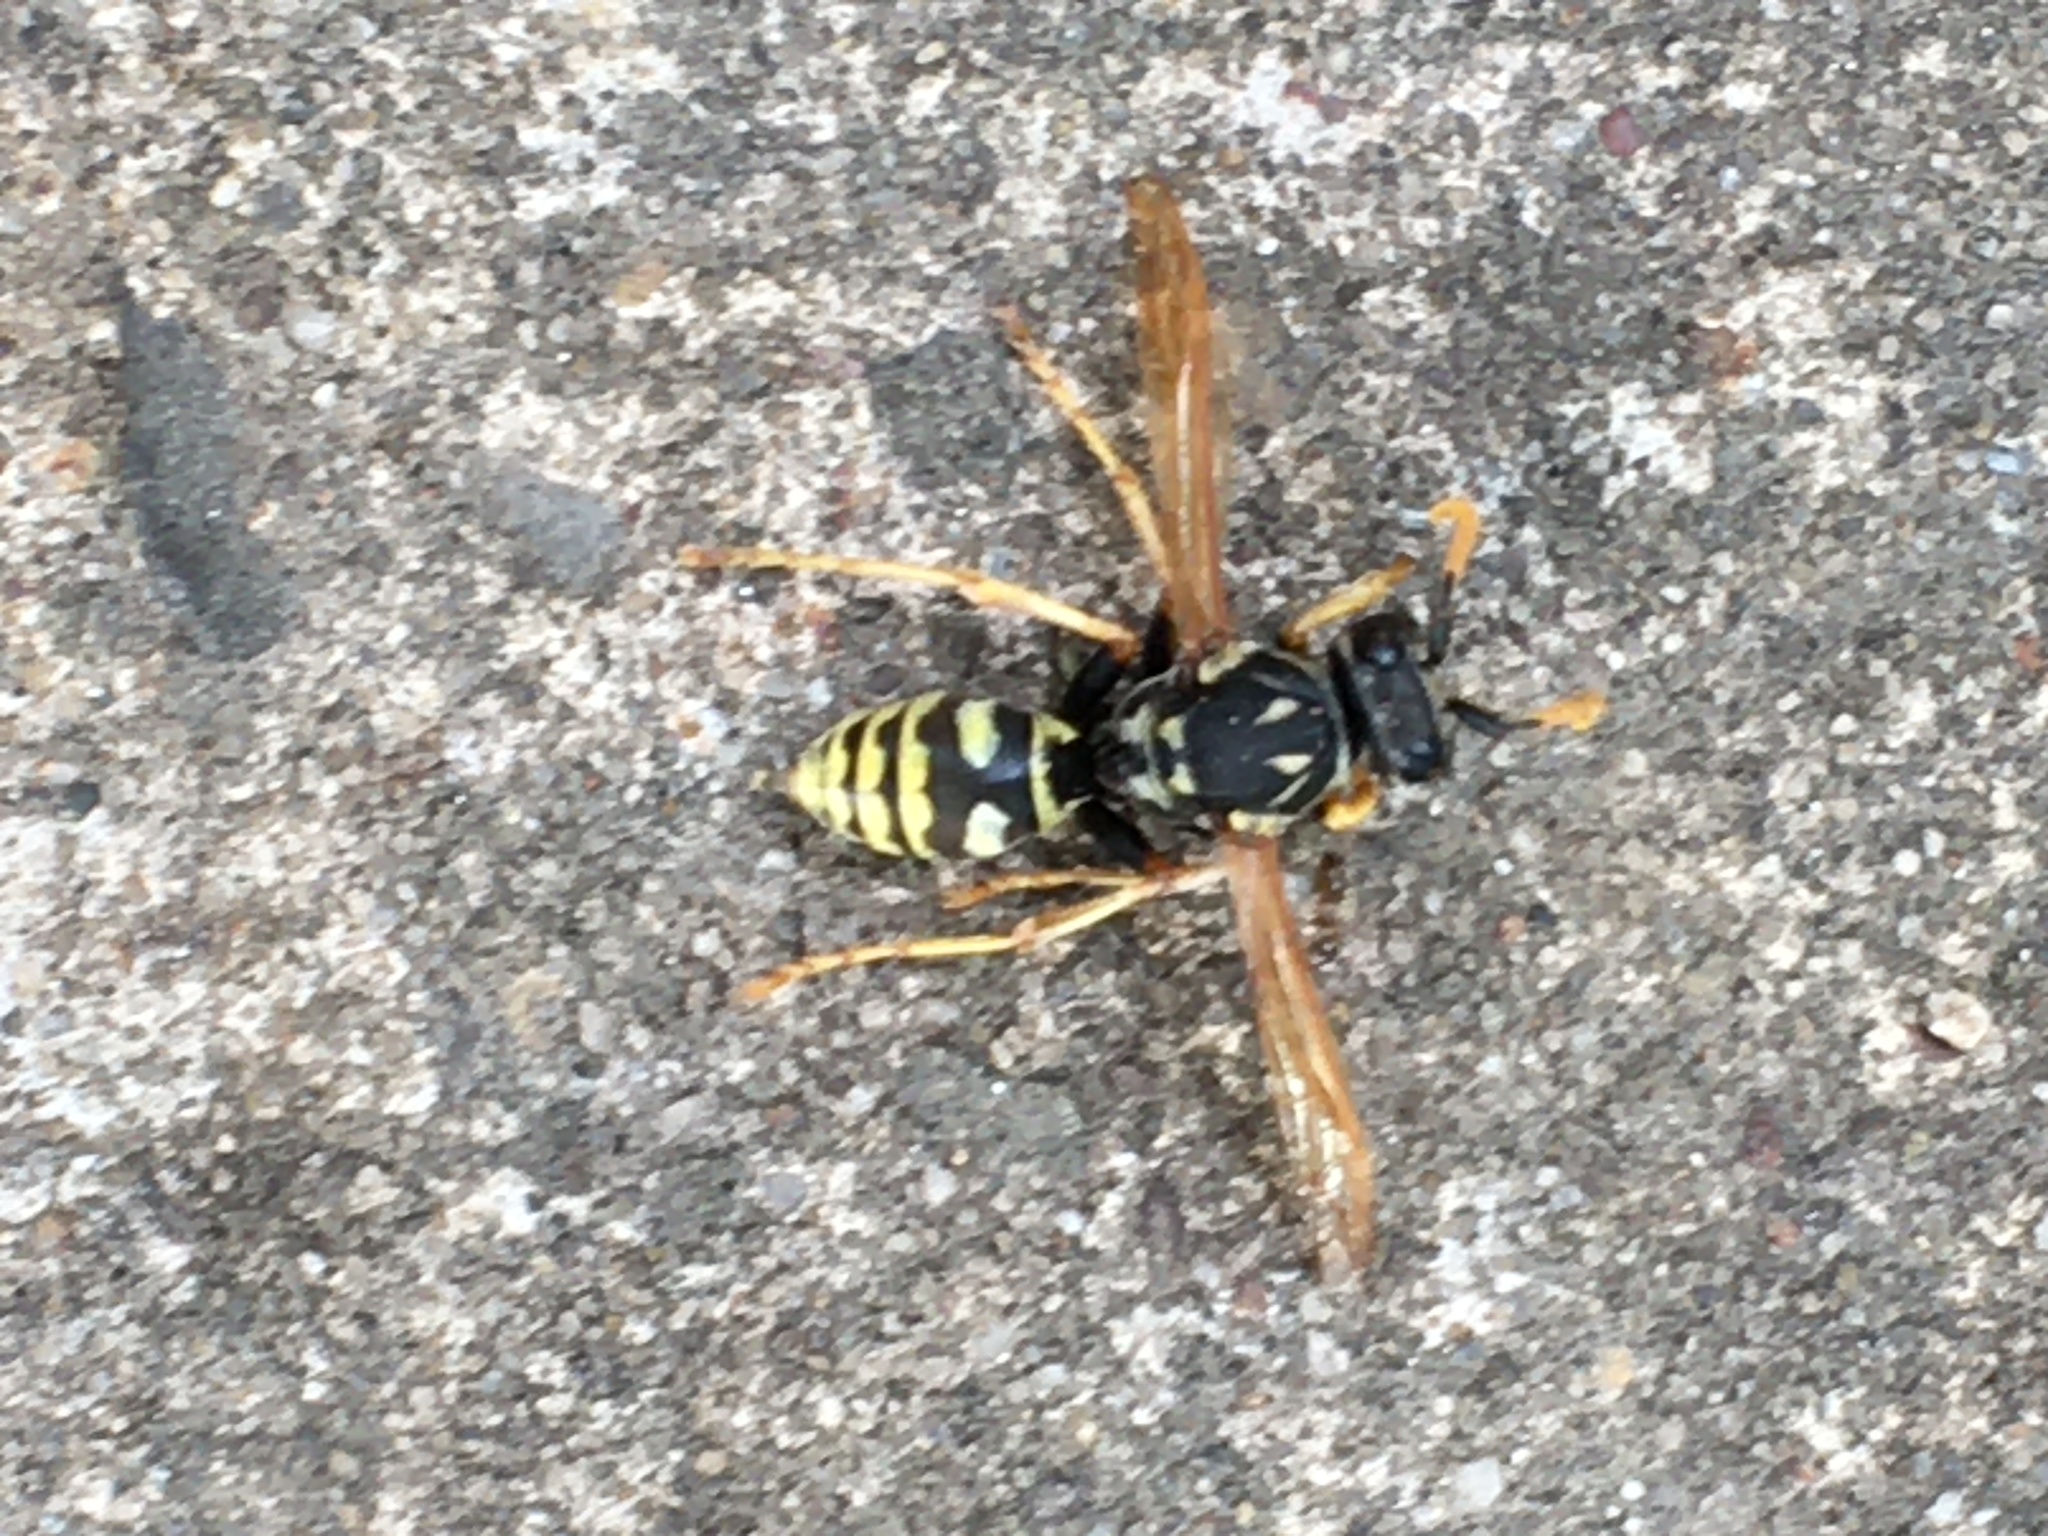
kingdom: Animalia
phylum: Arthropoda
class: Insecta
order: Hymenoptera
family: Eumenidae
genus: Polistes
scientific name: Polistes dominula
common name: Paper wasp
